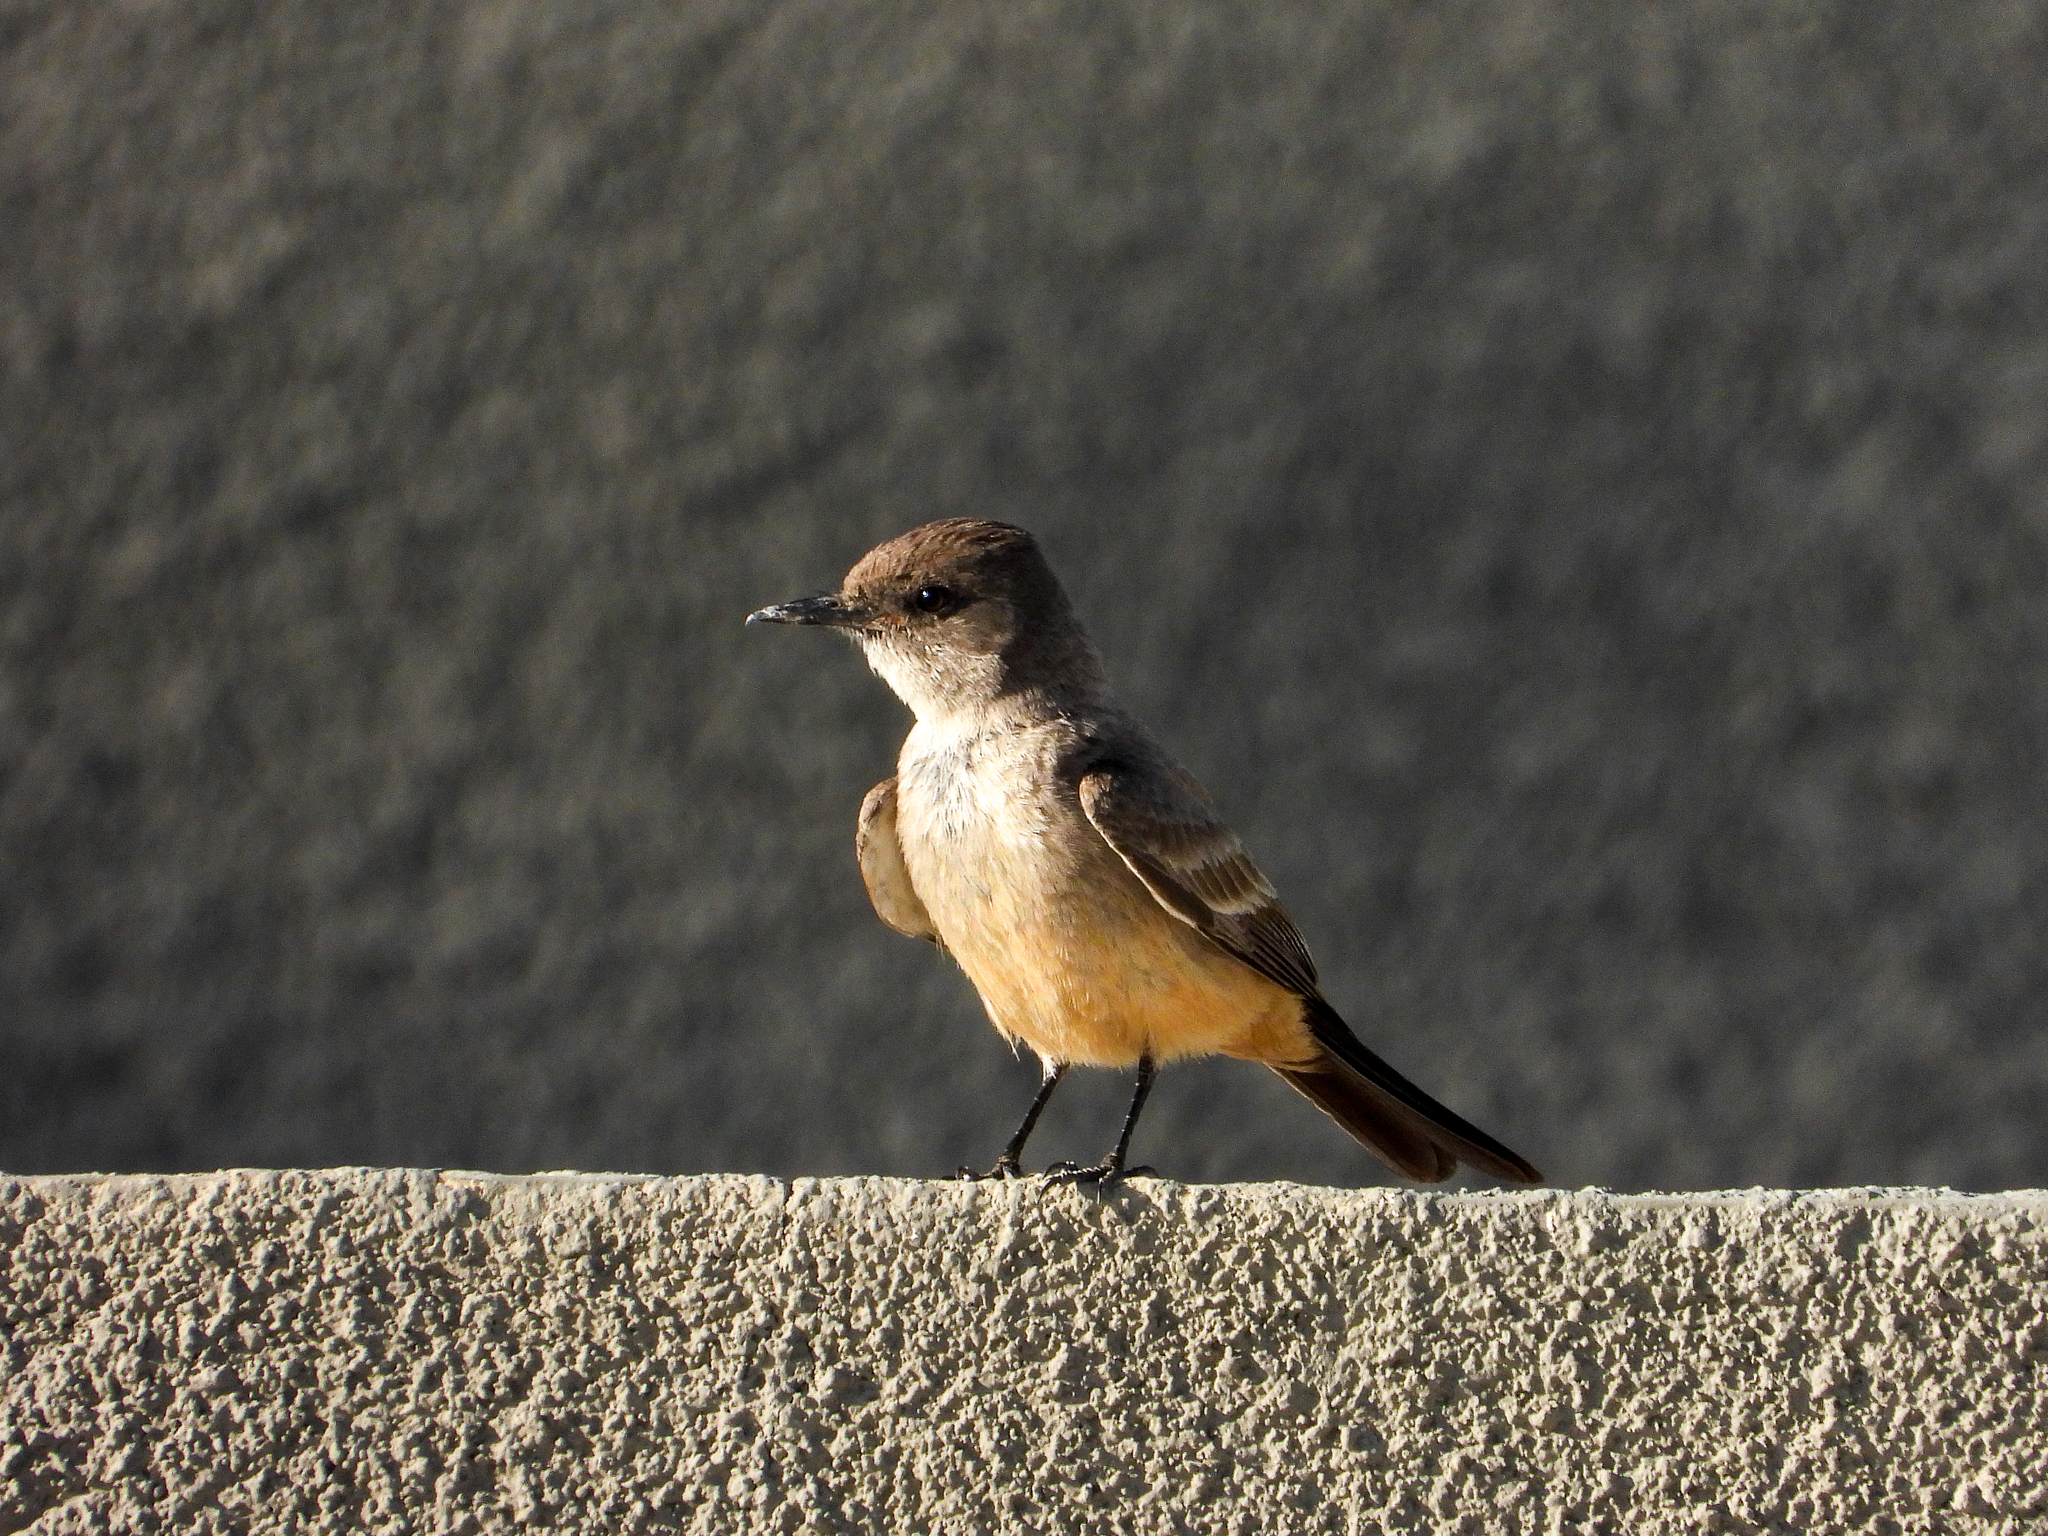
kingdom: Animalia
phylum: Chordata
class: Aves
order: Passeriformes
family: Tyrannidae
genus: Sayornis
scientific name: Sayornis saya
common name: Say's phoebe
